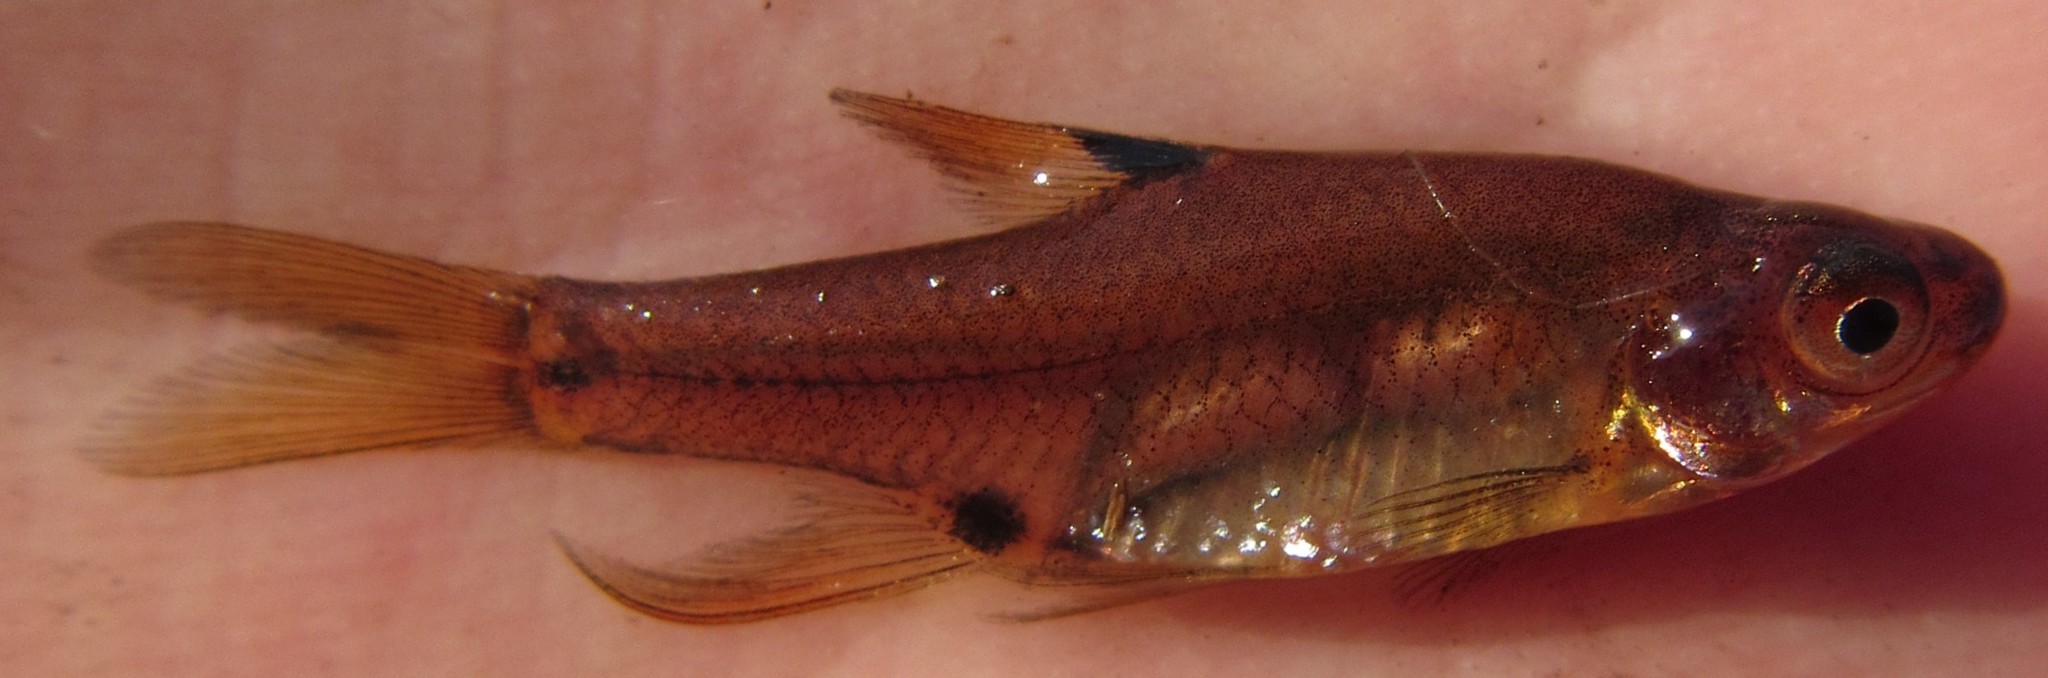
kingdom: Animalia
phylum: Chordata
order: Cypriniformes
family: Cyprinidae
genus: Enteromius
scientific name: Enteromius haasianus
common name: Sickle-fin barb
